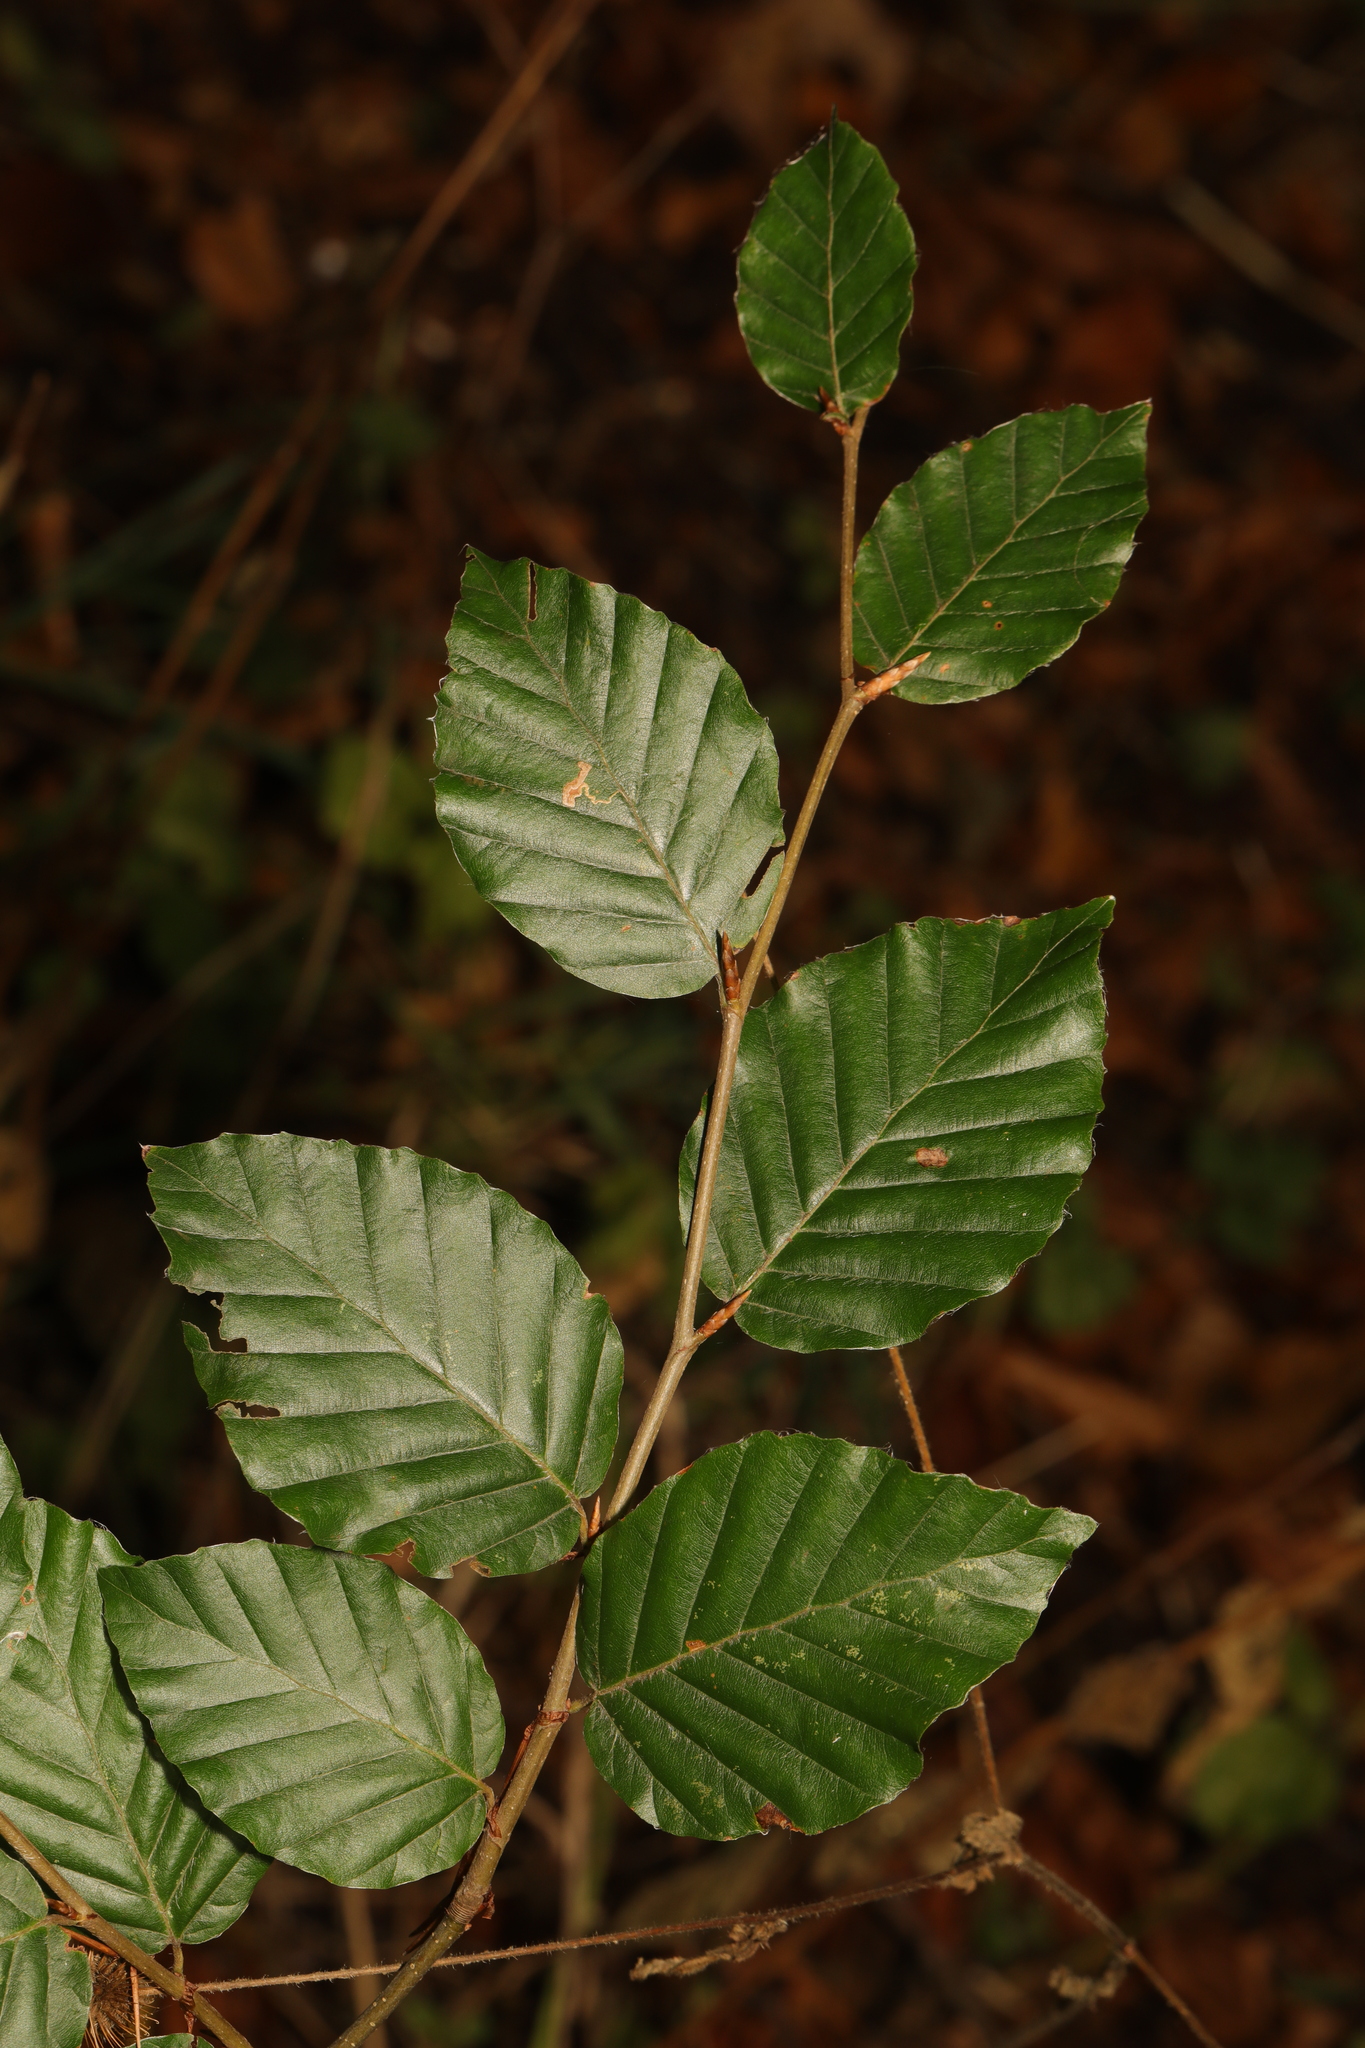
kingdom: Plantae
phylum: Tracheophyta
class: Magnoliopsida
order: Fagales
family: Fagaceae
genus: Fagus
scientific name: Fagus sylvatica
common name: Beech
